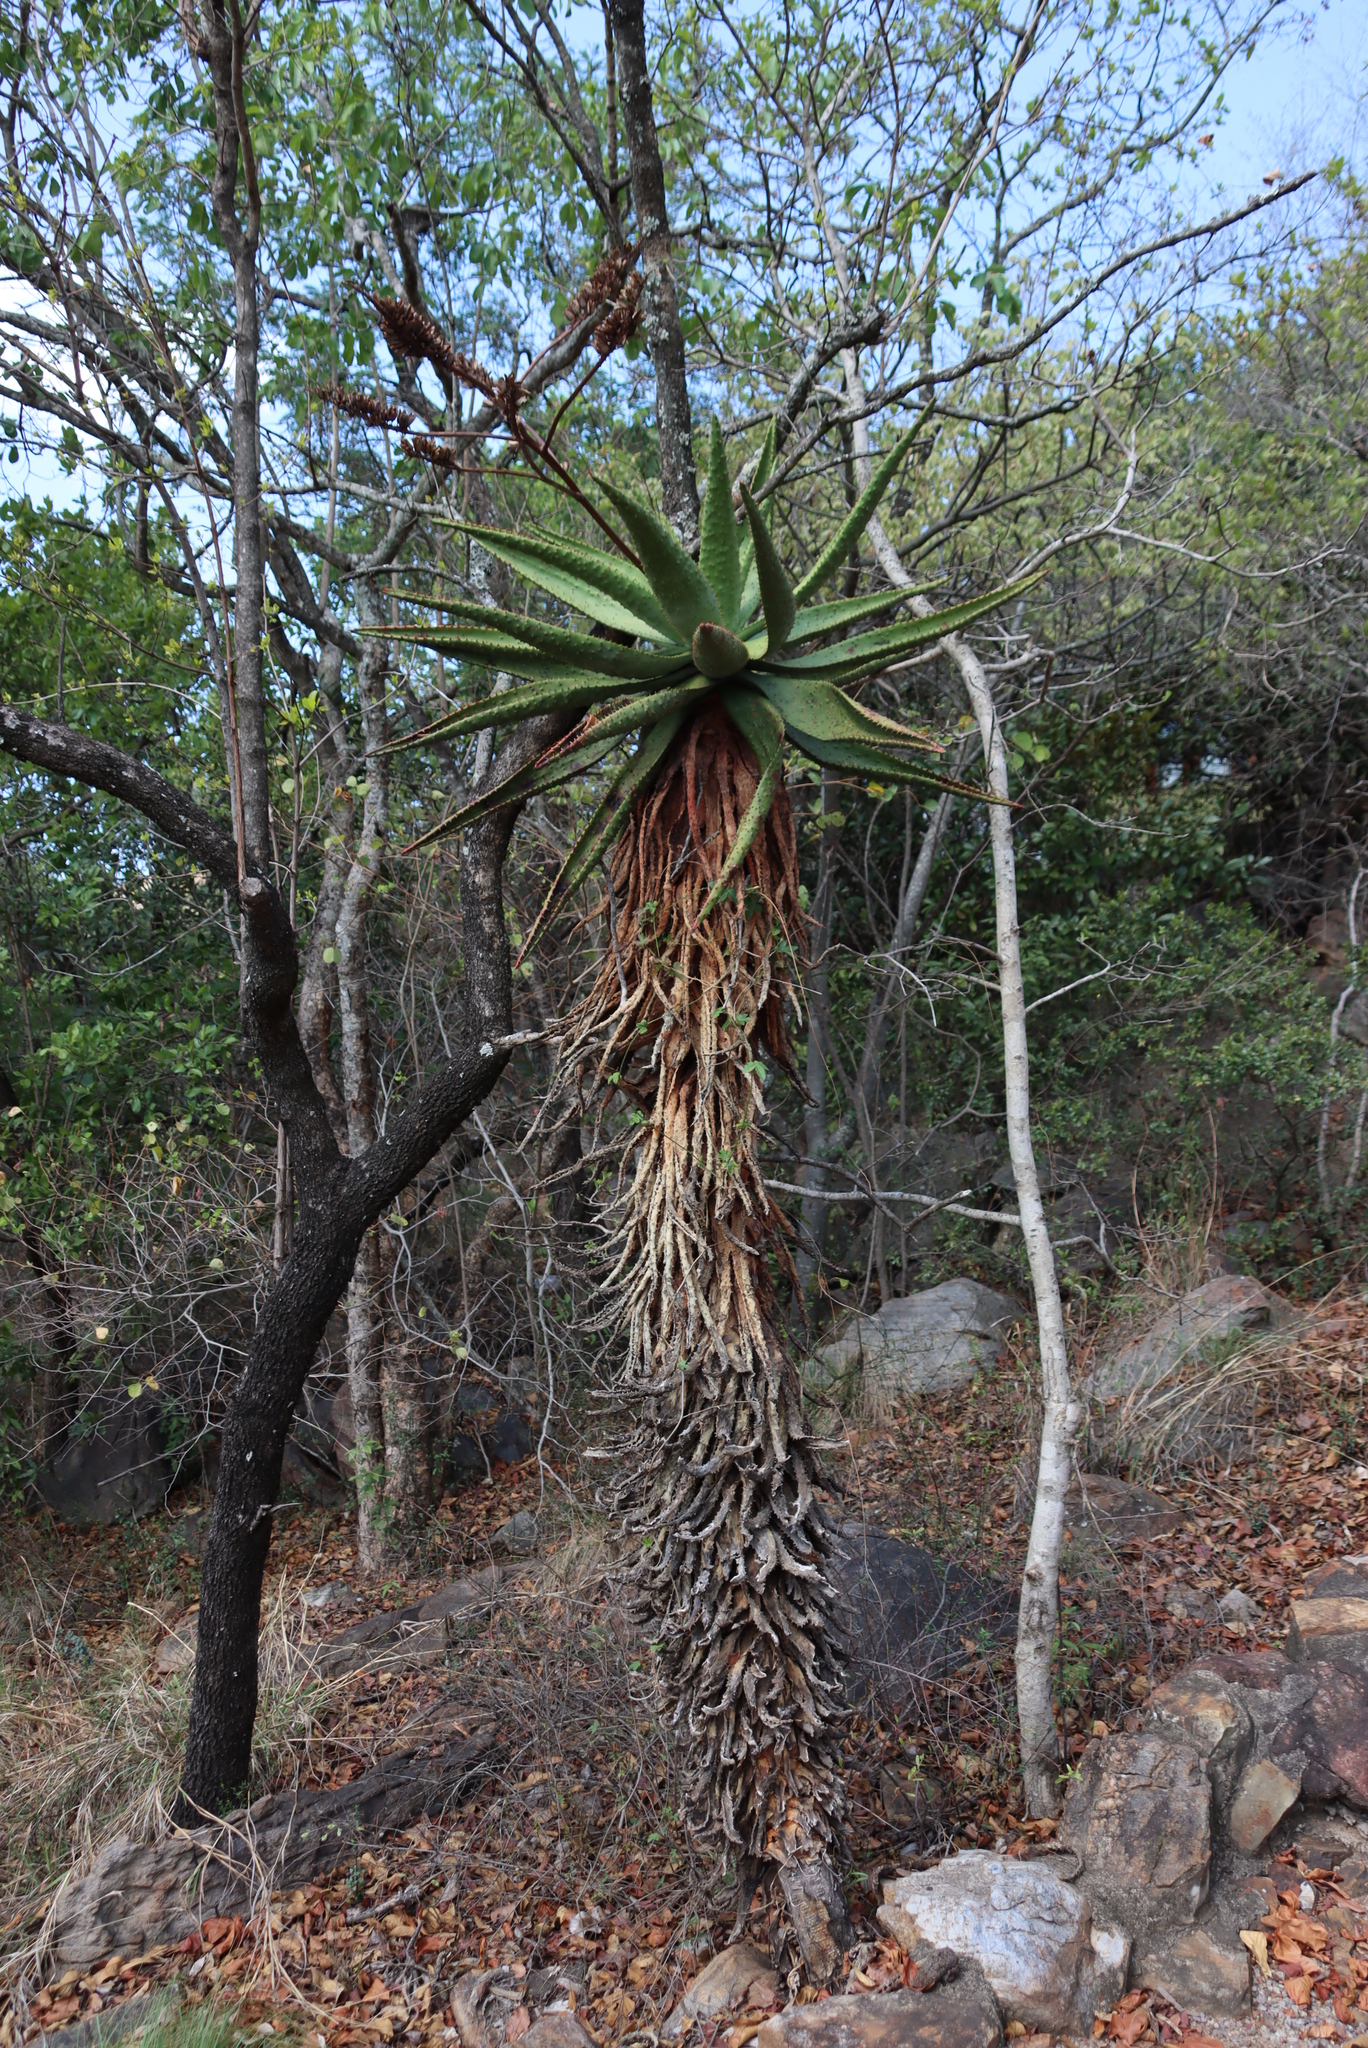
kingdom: Plantae
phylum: Tracheophyta
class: Liliopsida
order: Asparagales
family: Asphodelaceae
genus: Aloe
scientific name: Aloe marlothii
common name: Flat-flowered aloe
